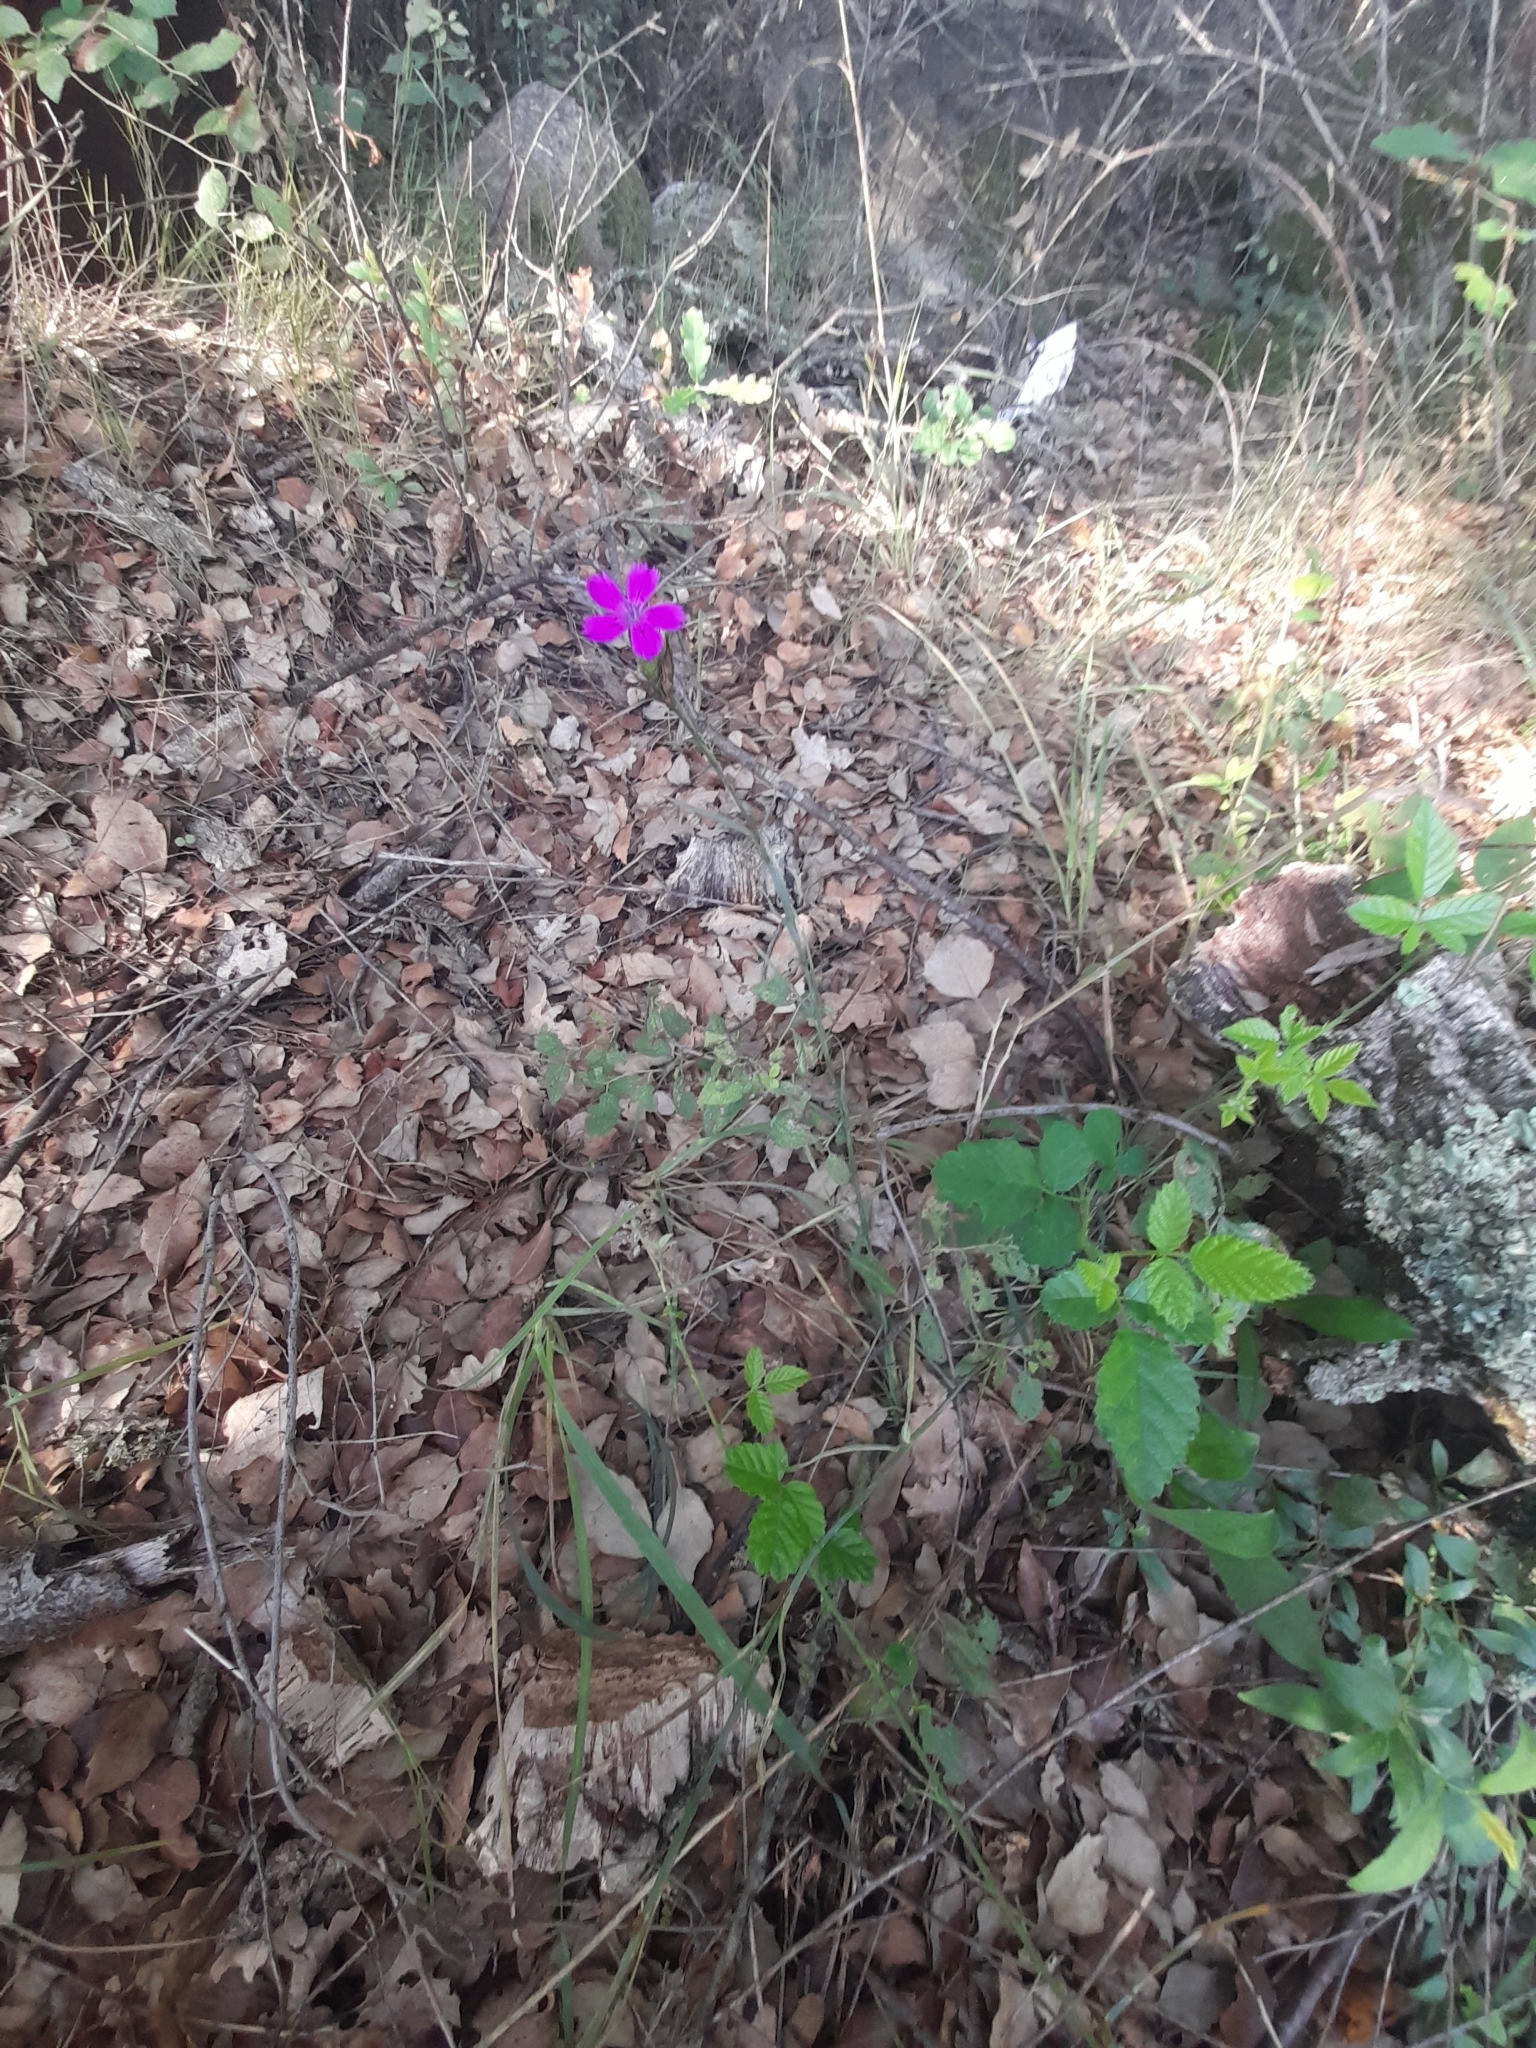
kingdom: Plantae
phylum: Tracheophyta
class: Magnoliopsida
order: Caryophyllales
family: Caryophyllaceae
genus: Dianthus
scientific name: Dianthus balbisii
